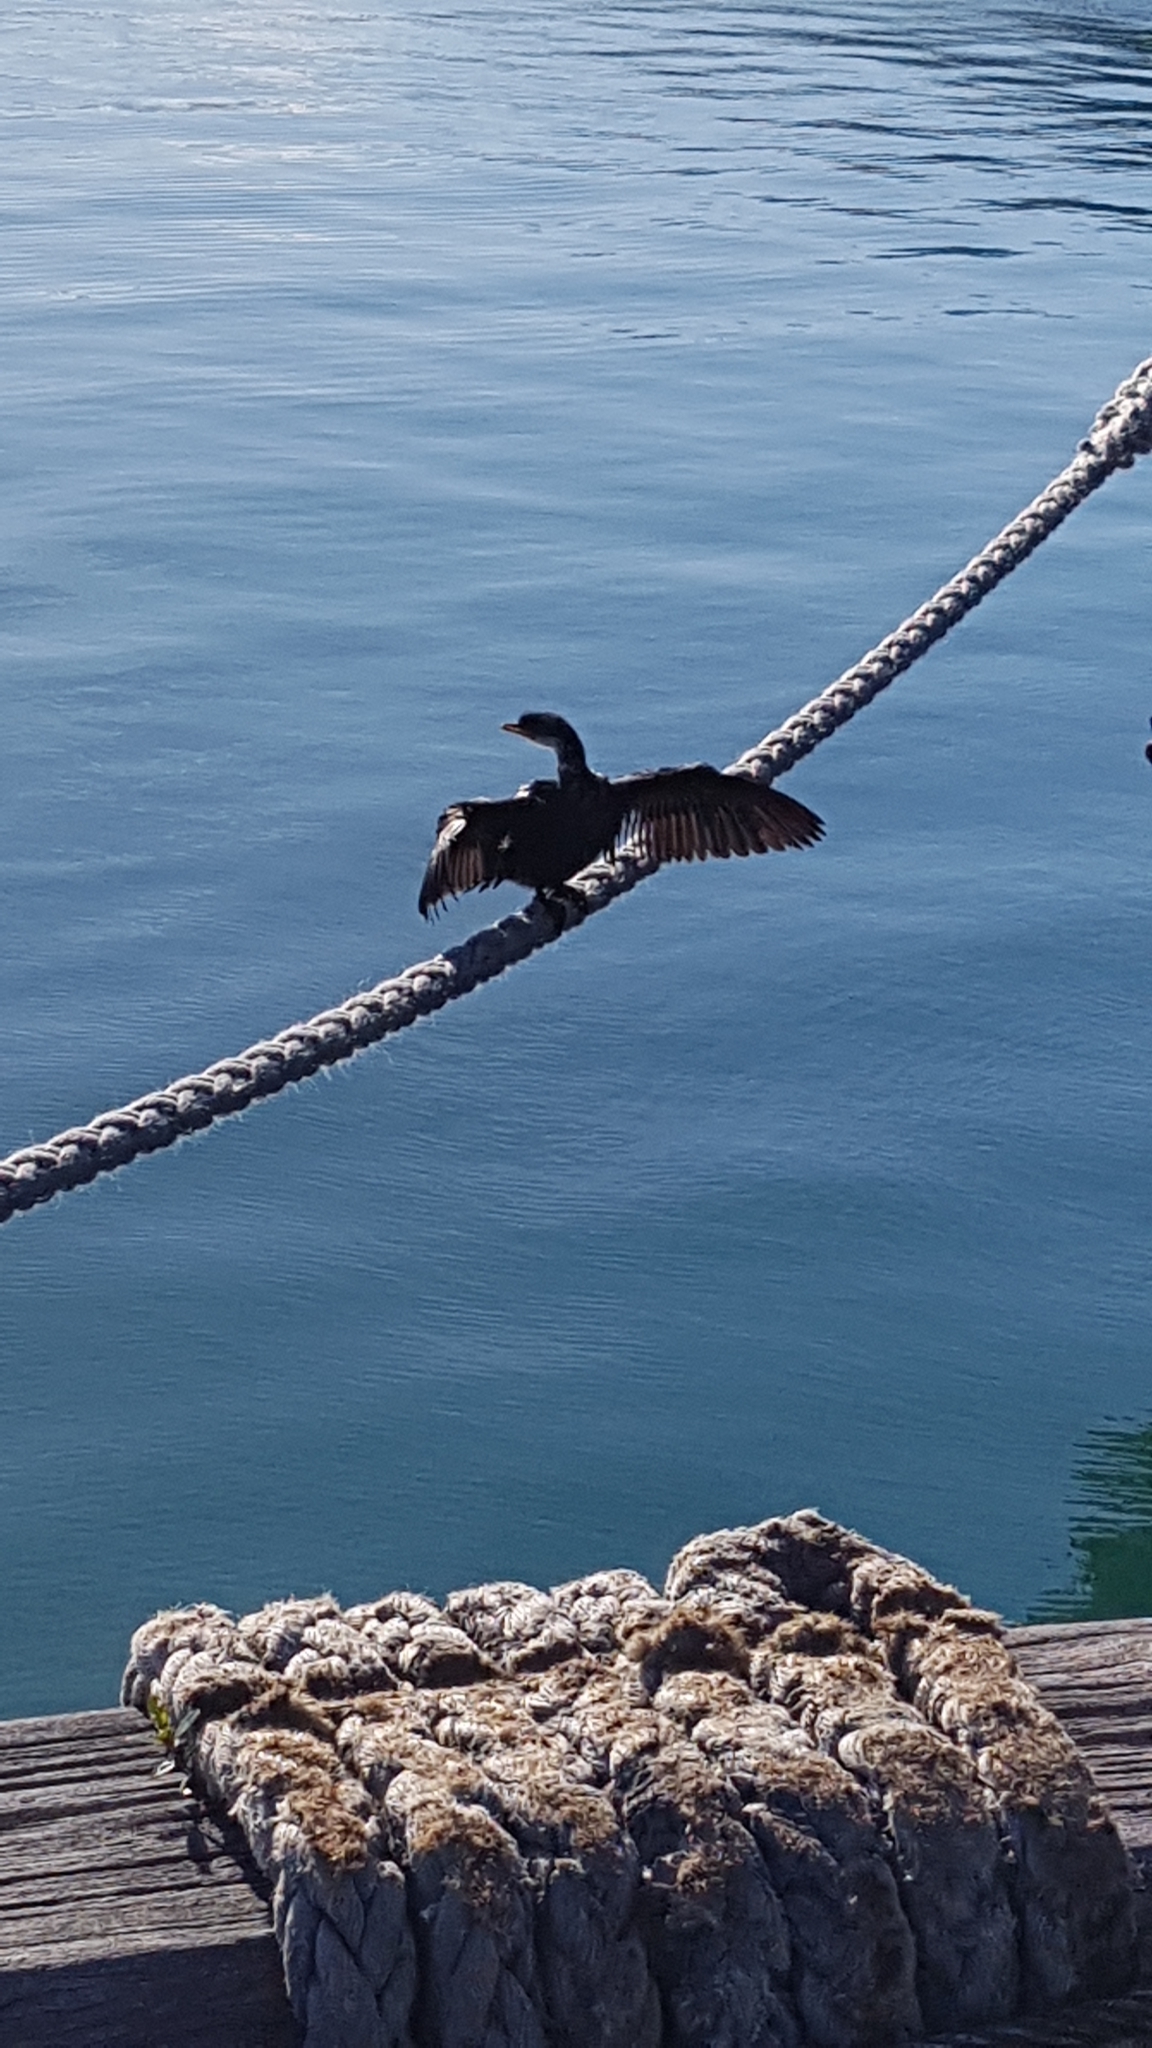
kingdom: Animalia
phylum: Chordata
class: Aves
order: Suliformes
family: Phalacrocoracidae
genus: Microcarbo
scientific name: Microcarbo melanoleucos
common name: Little pied cormorant
